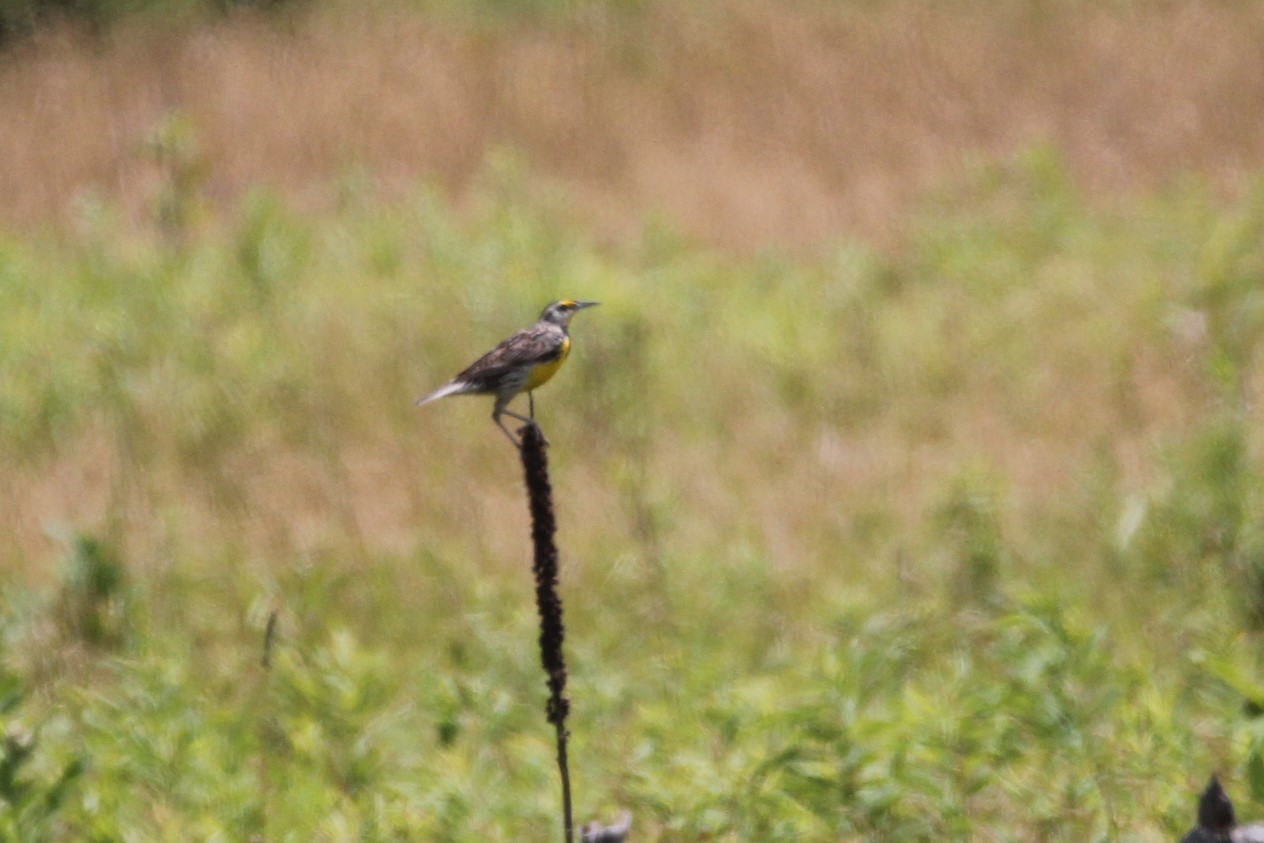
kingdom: Animalia
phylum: Chordata
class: Aves
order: Passeriformes
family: Icteridae
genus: Sturnella
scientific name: Sturnella magna
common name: Eastern meadowlark
